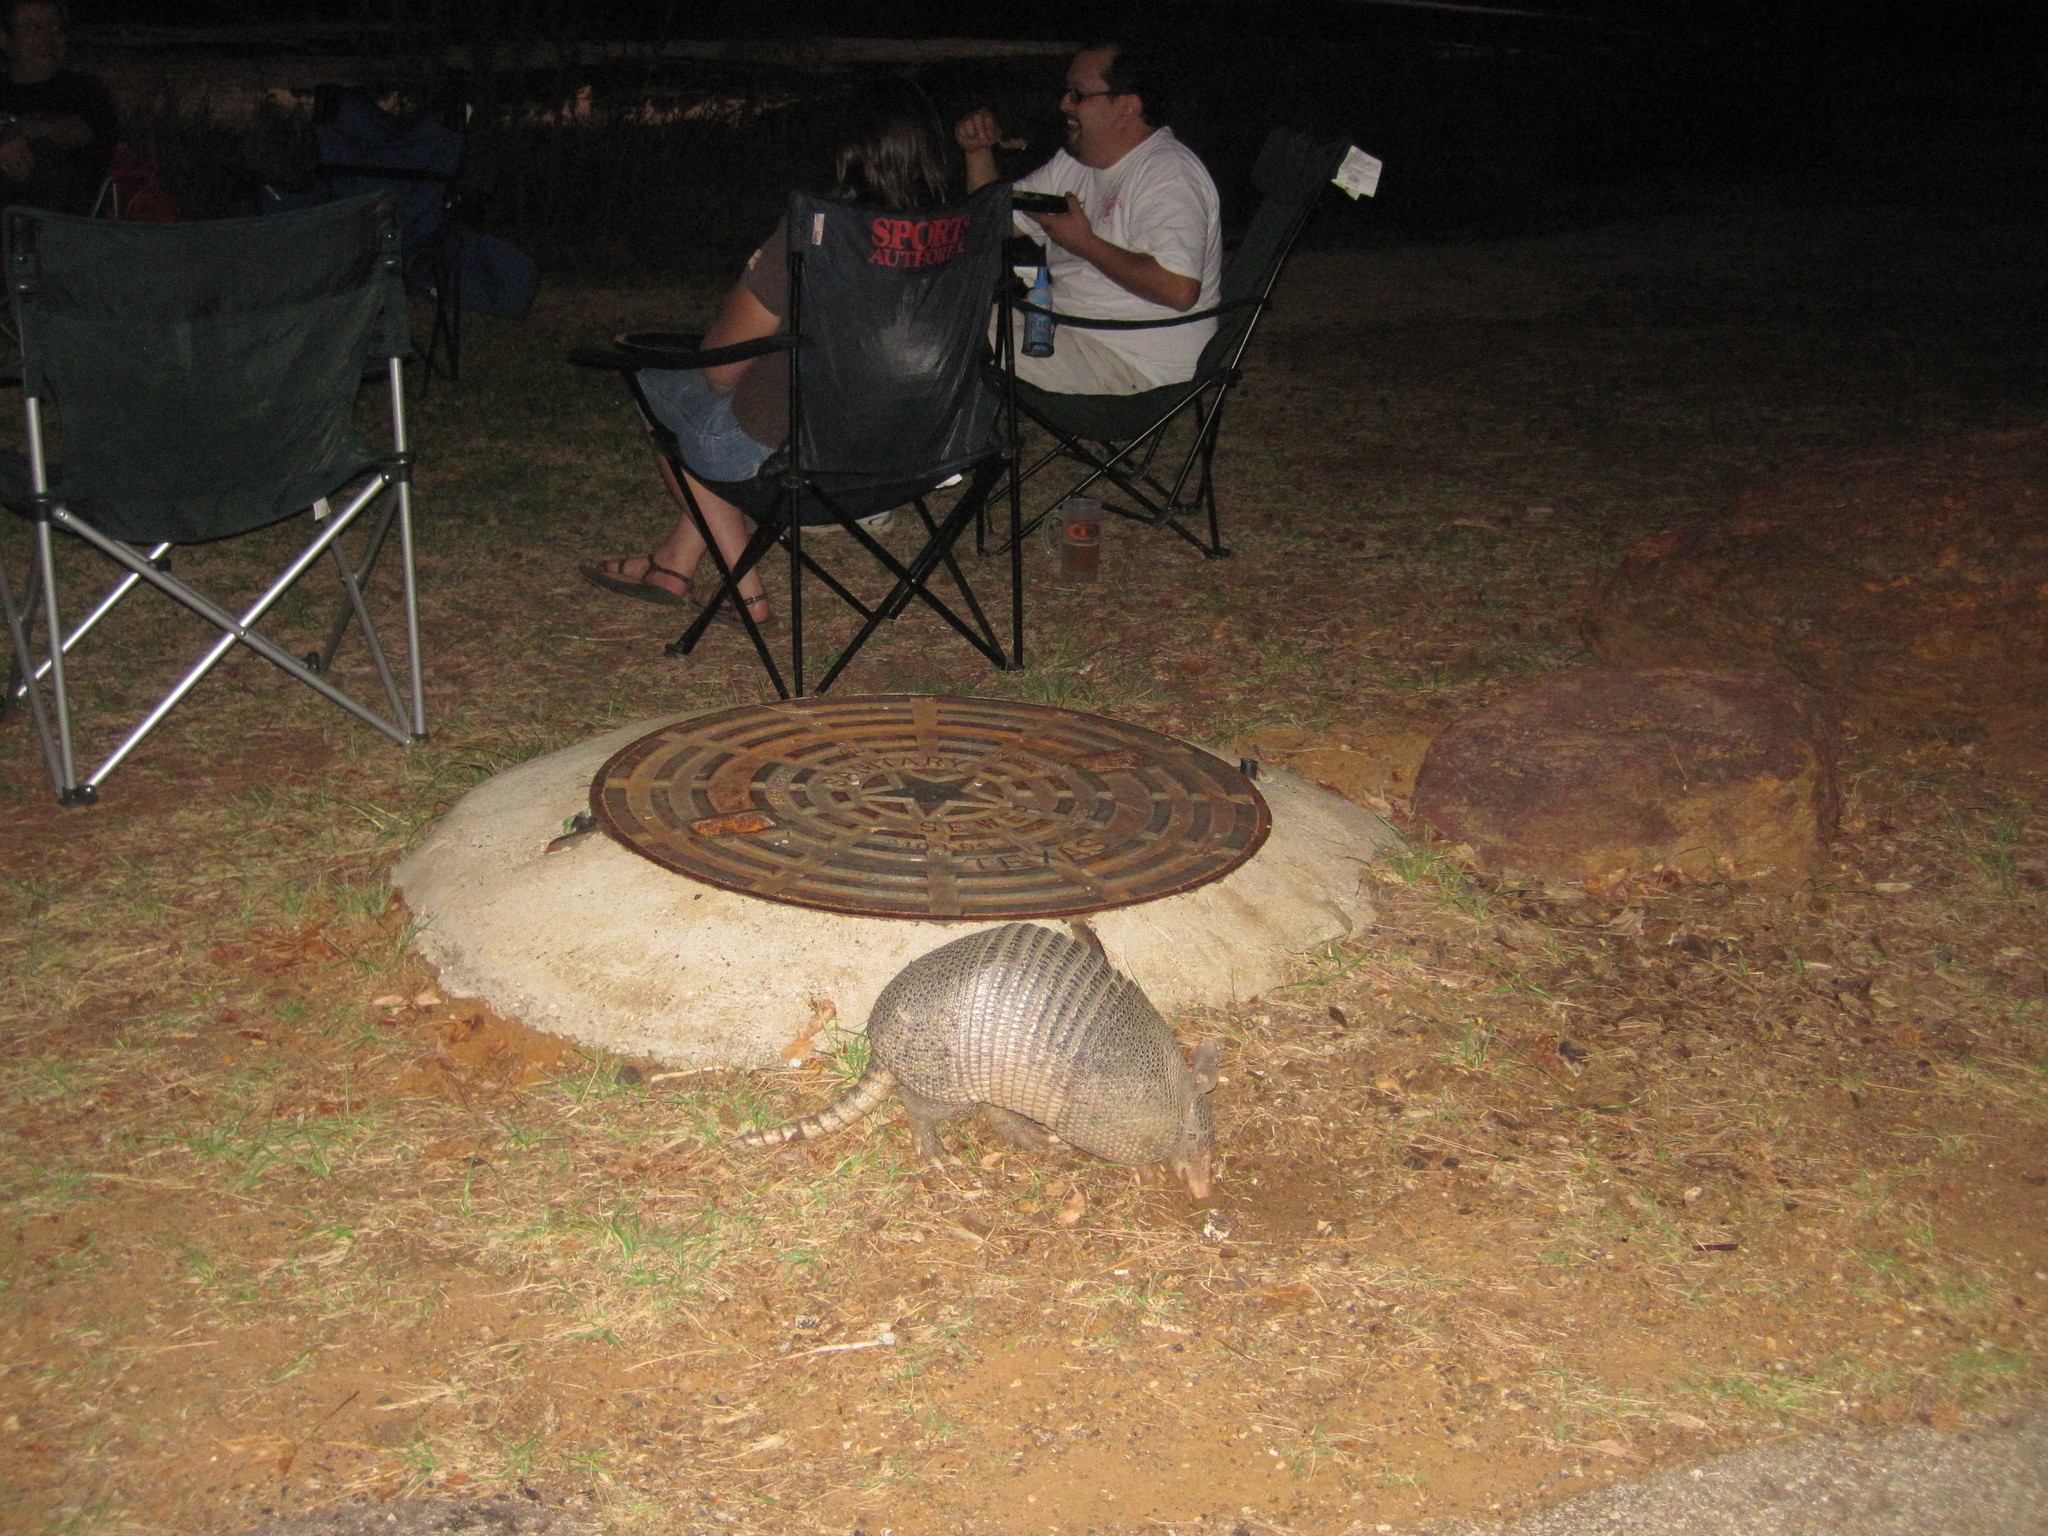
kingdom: Animalia
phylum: Chordata
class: Mammalia
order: Cingulata
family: Dasypodidae
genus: Dasypus
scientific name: Dasypus novemcinctus
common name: Nine-banded armadillo
